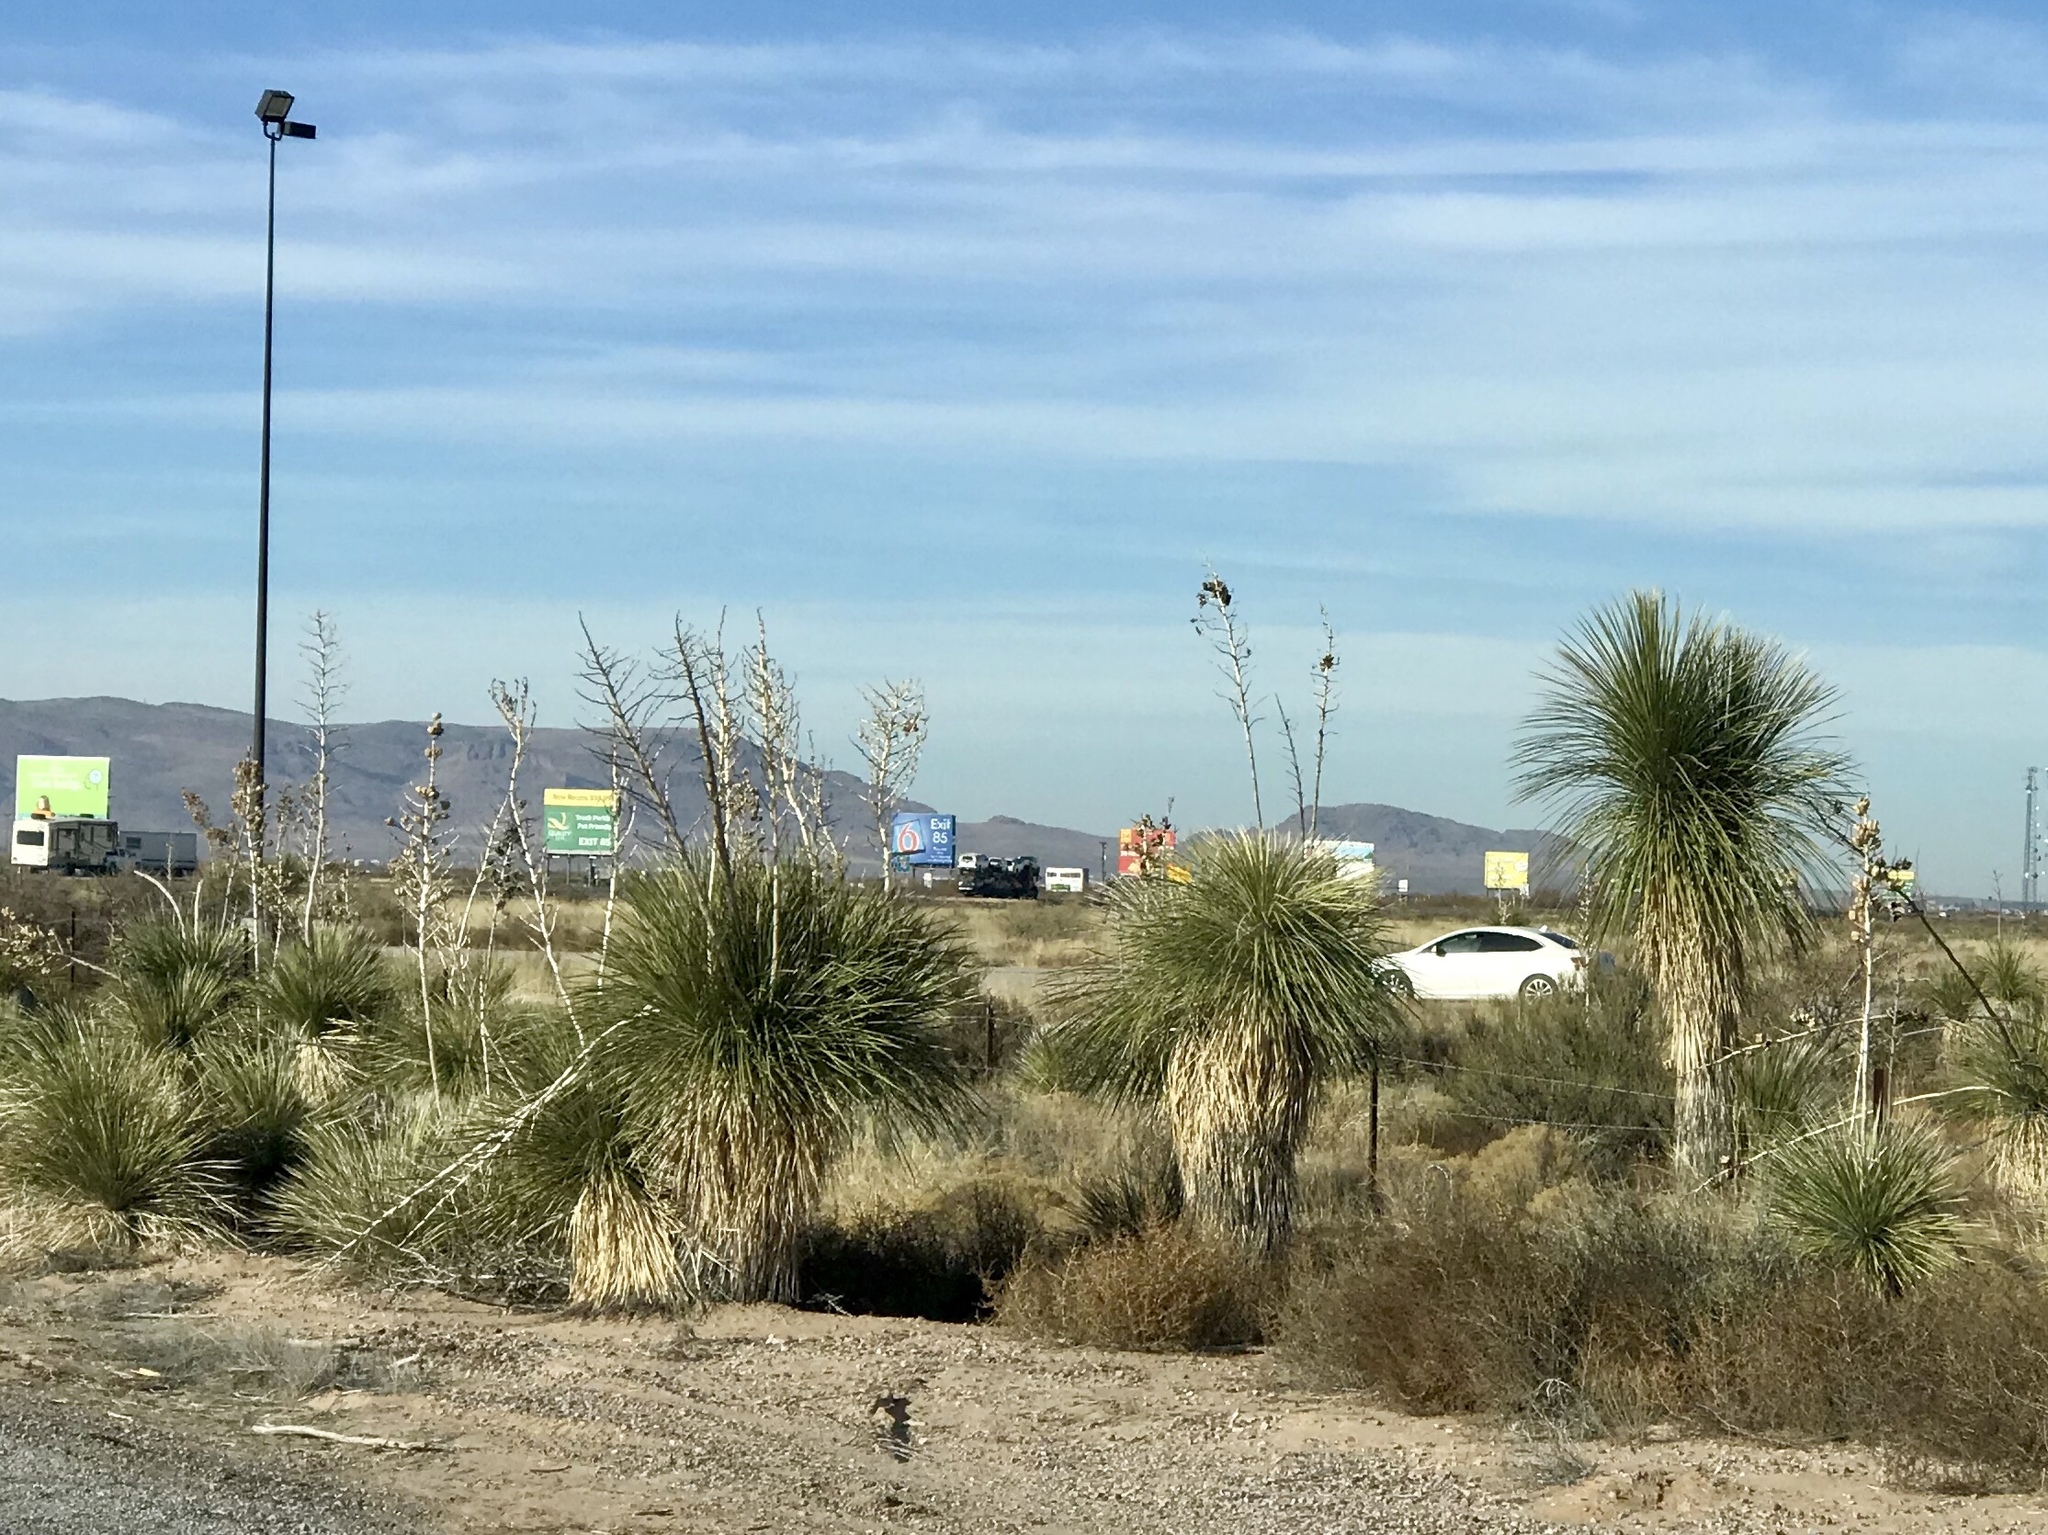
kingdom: Plantae
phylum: Tracheophyta
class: Liliopsida
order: Asparagales
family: Asparagaceae
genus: Yucca
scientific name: Yucca elata
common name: Palmella
